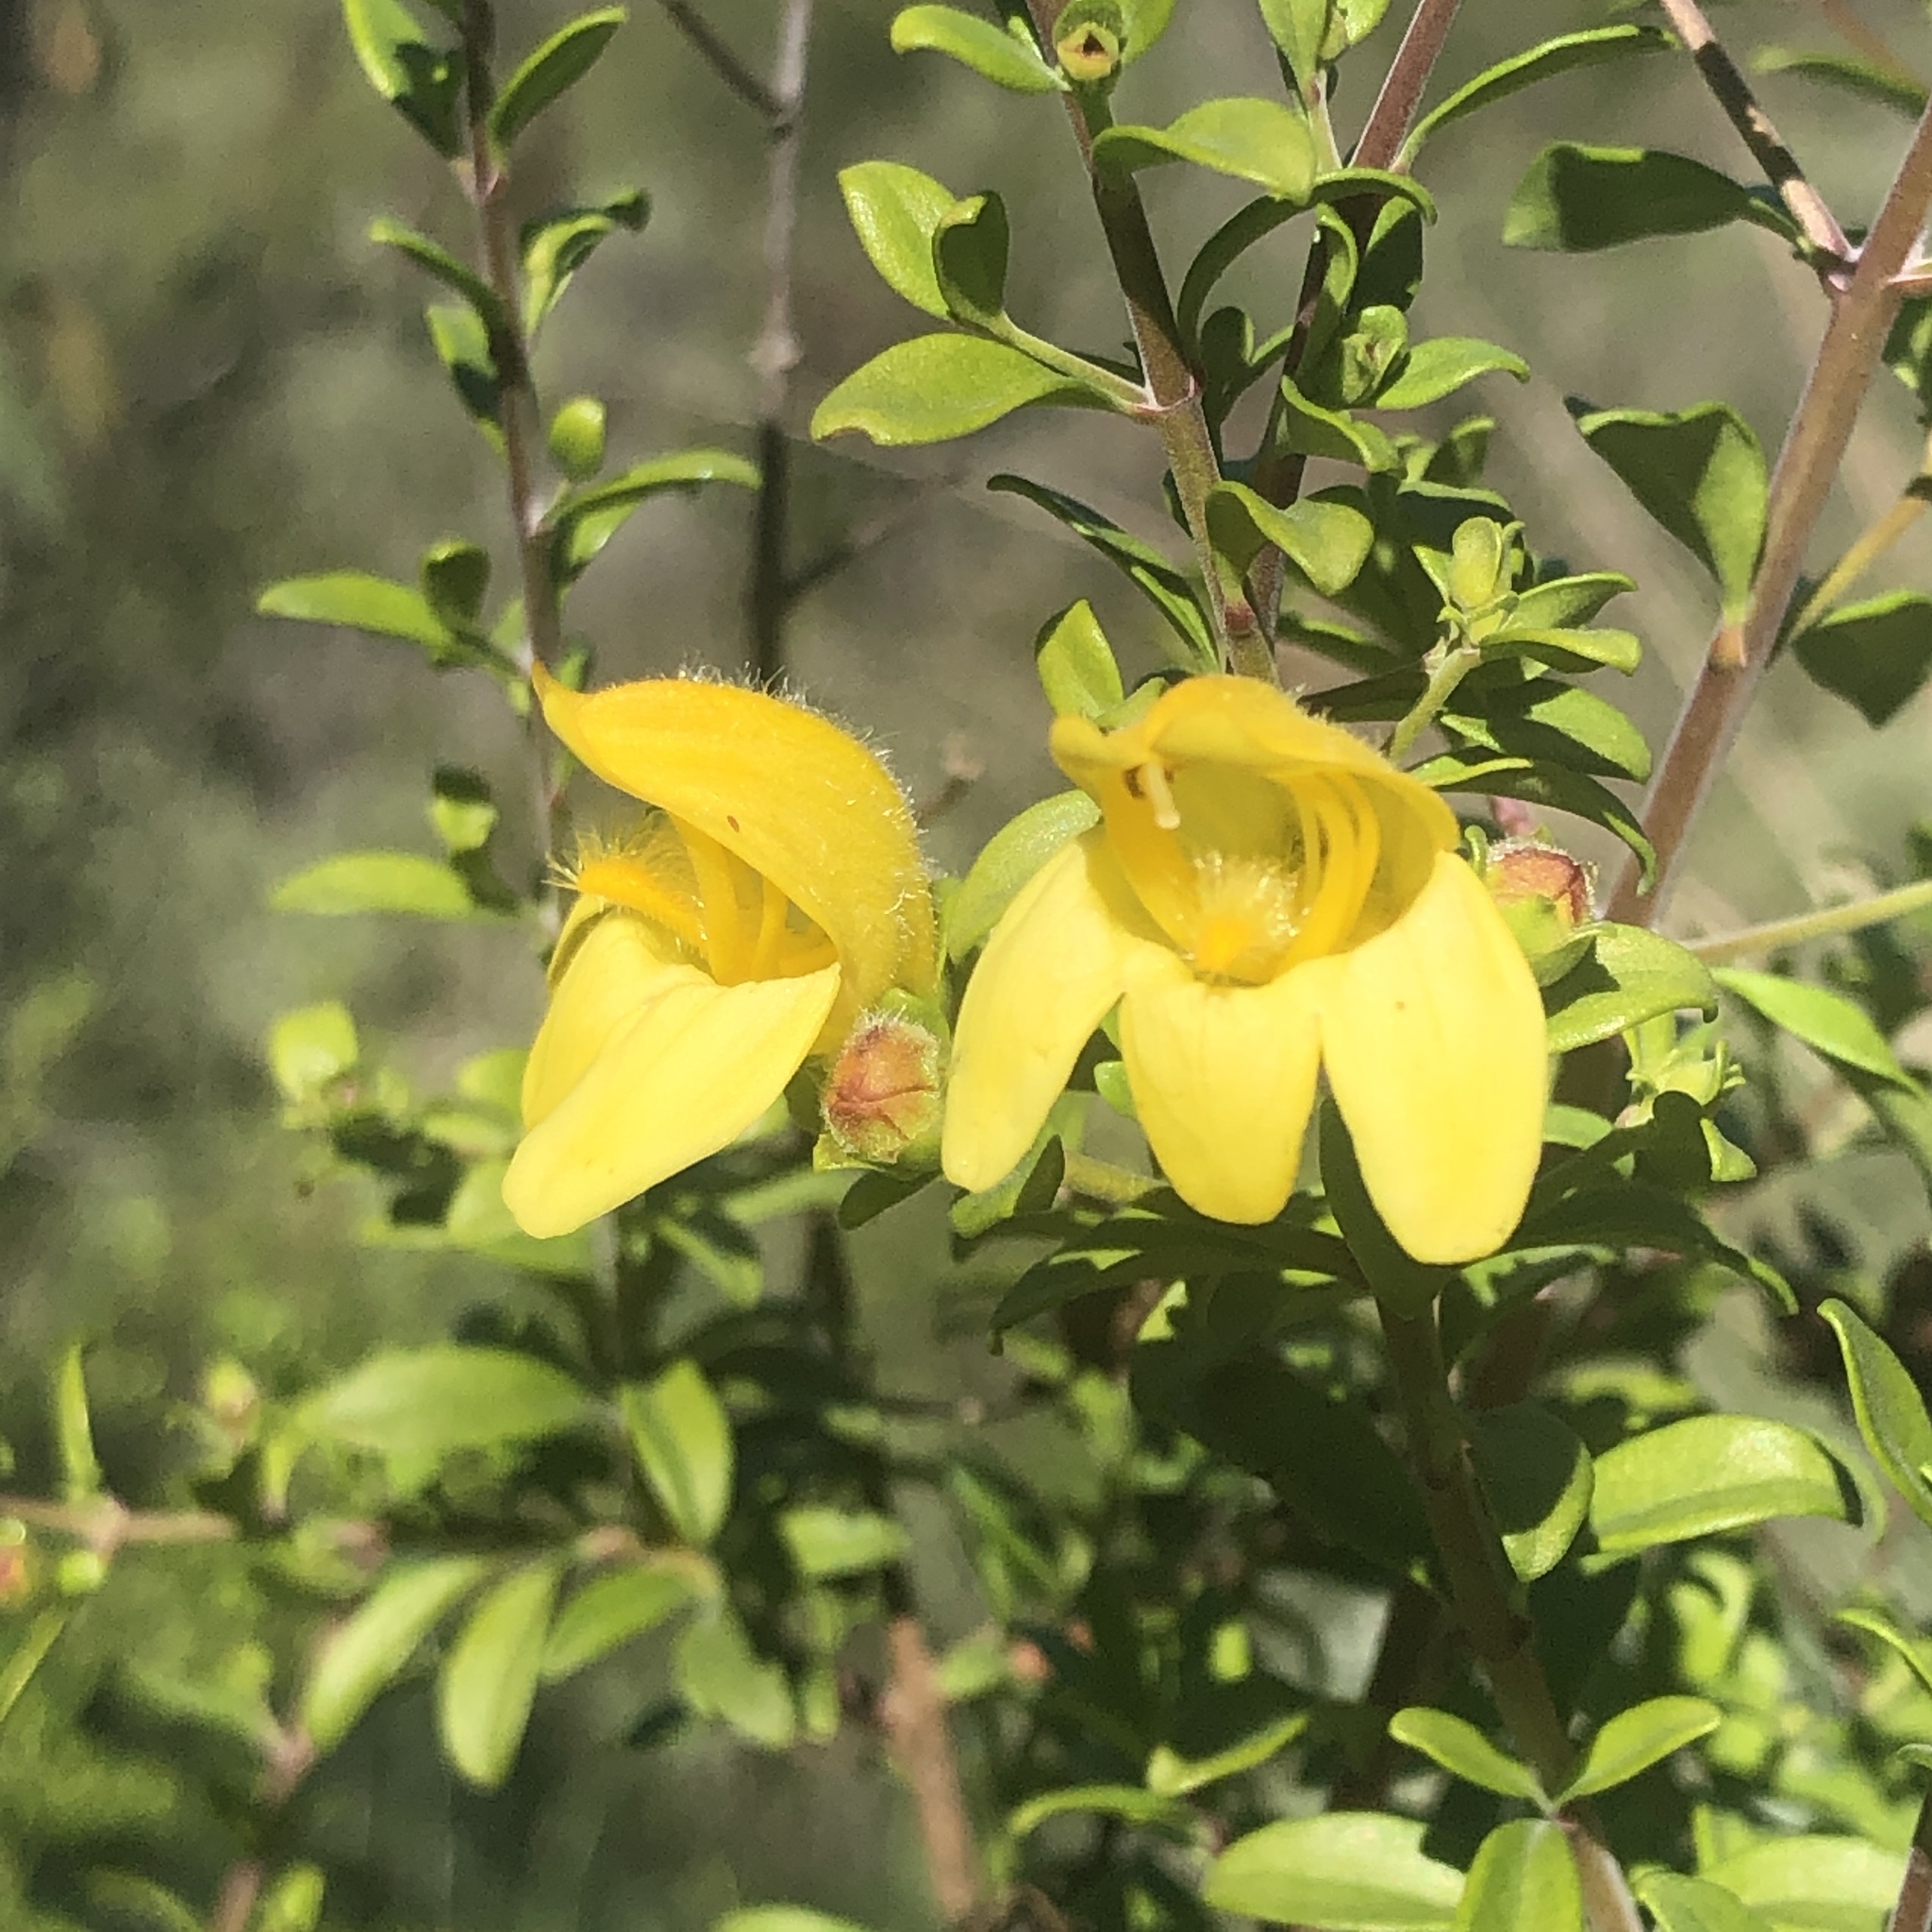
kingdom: Plantae
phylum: Tracheophyta
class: Magnoliopsida
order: Lamiales
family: Plantaginaceae
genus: Keckiella
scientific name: Keckiella antirrhinoides
